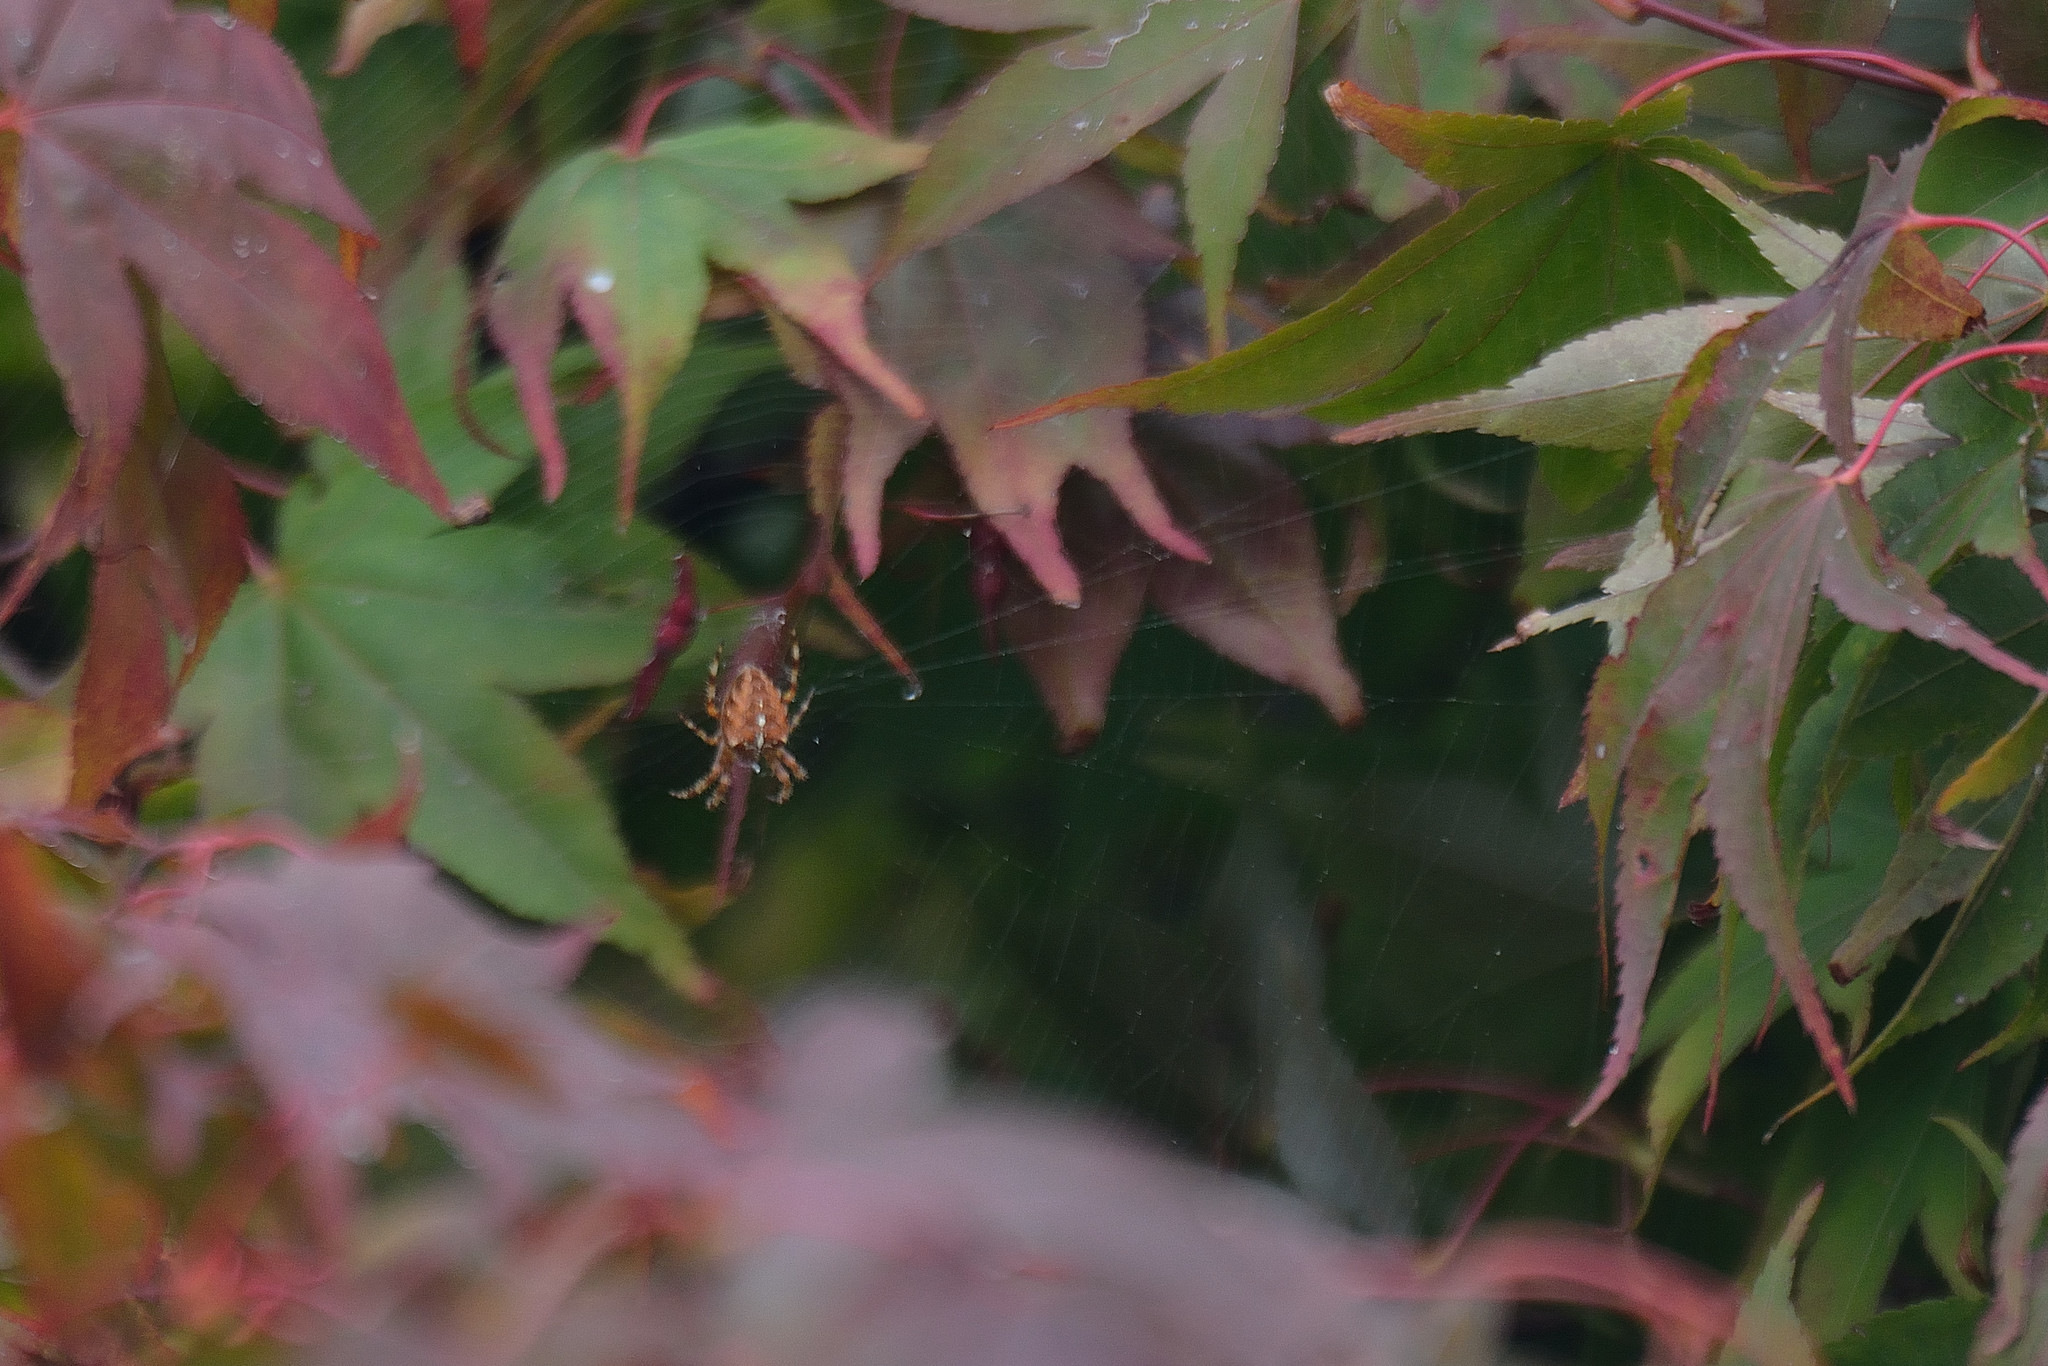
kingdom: Animalia
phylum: Arthropoda
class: Arachnida
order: Araneae
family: Araneidae
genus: Araneus
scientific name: Araneus diadematus
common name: Cross orbweaver
